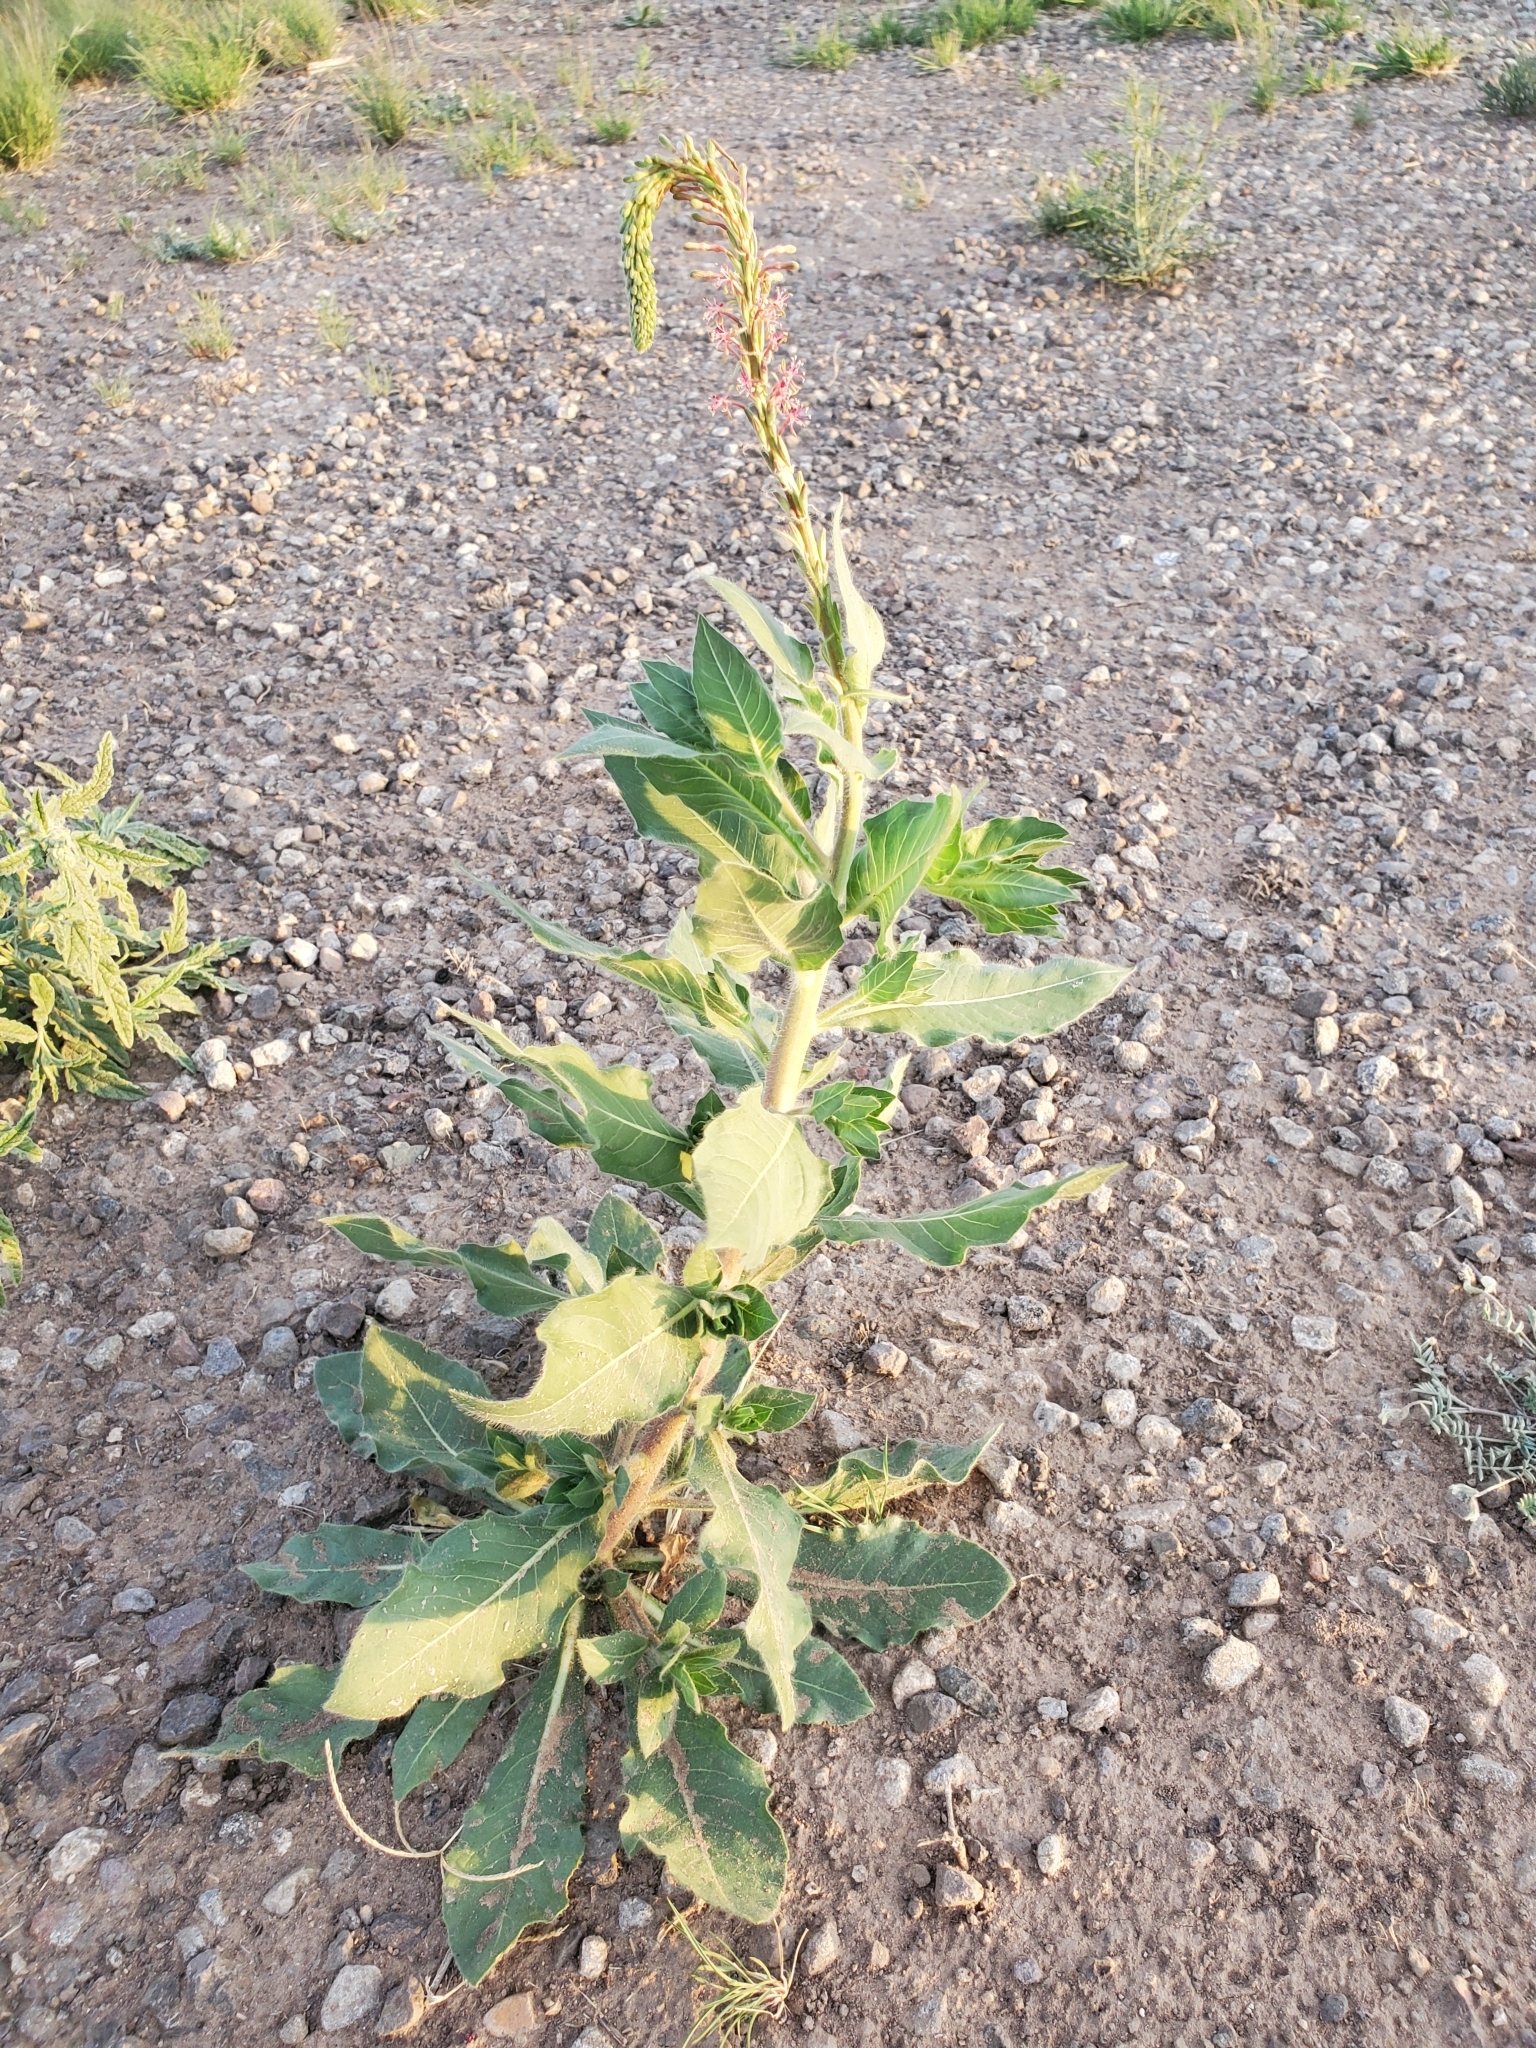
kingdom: Plantae
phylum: Tracheophyta
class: Magnoliopsida
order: Myrtales
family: Onagraceae
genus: Oenothera
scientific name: Oenothera curtiflora
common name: Velvetweed
